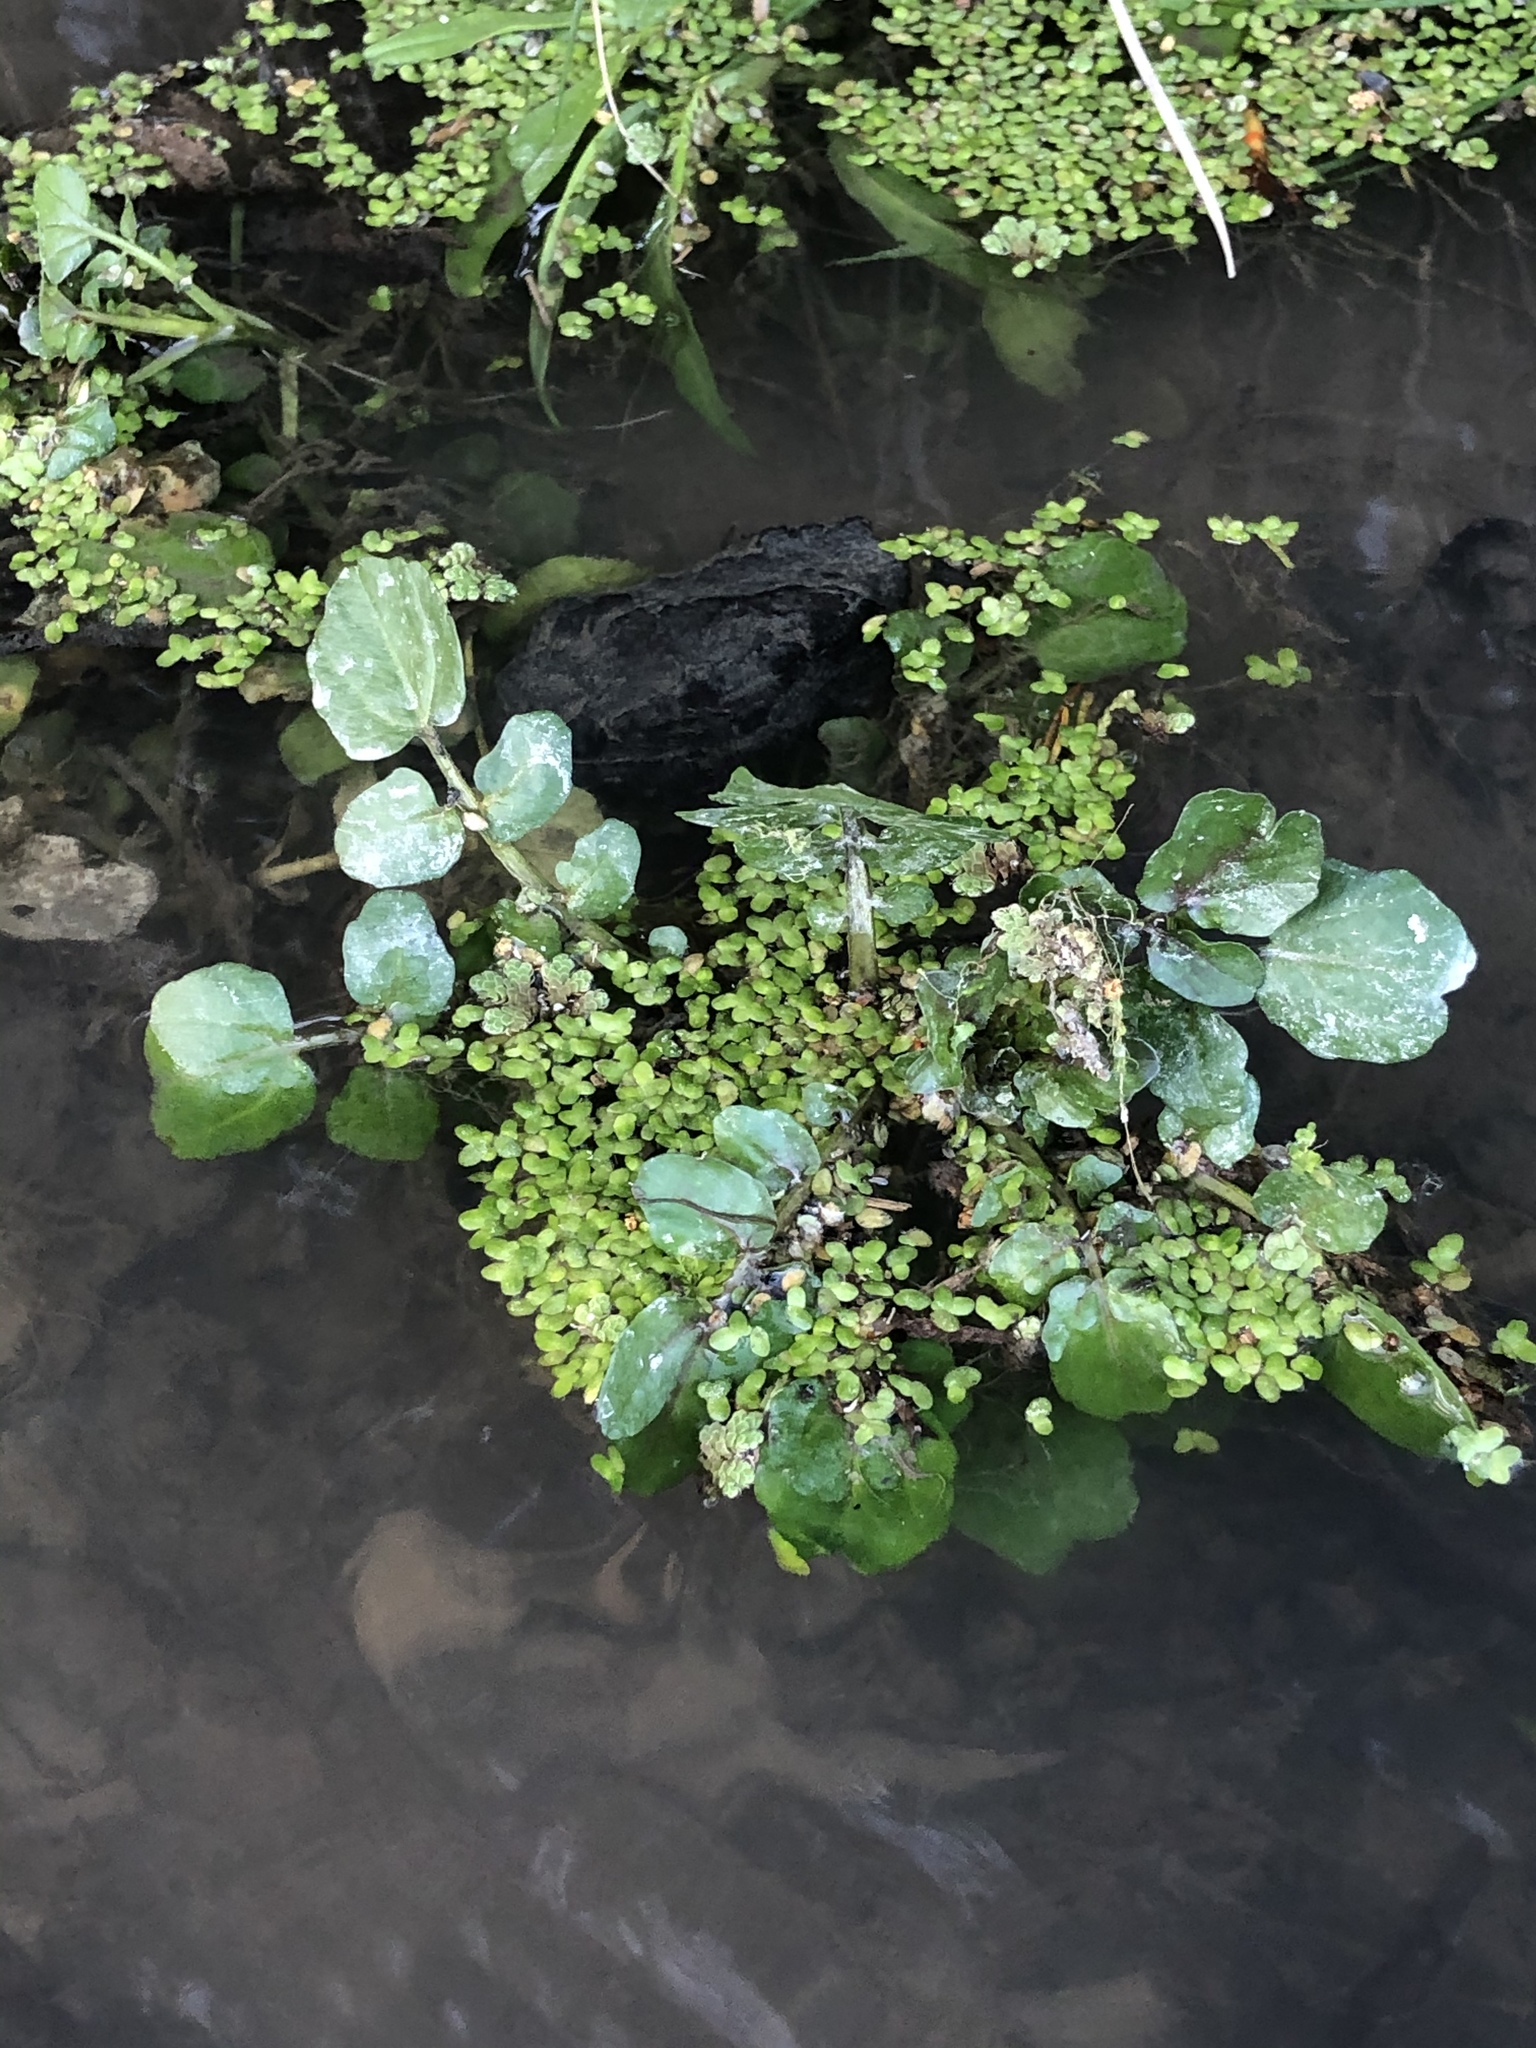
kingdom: Plantae
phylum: Tracheophyta
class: Polypodiopsida
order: Salviniales
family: Salviniaceae
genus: Azolla
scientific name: Azolla rubra
